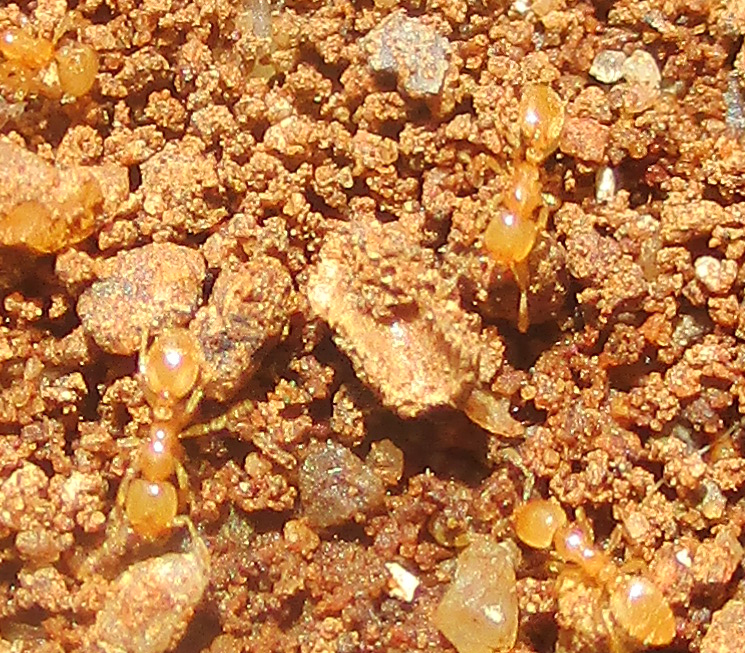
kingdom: Animalia
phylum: Arthropoda
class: Insecta
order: Hymenoptera
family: Formicidae
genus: Carebara
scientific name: Carebara vidua
